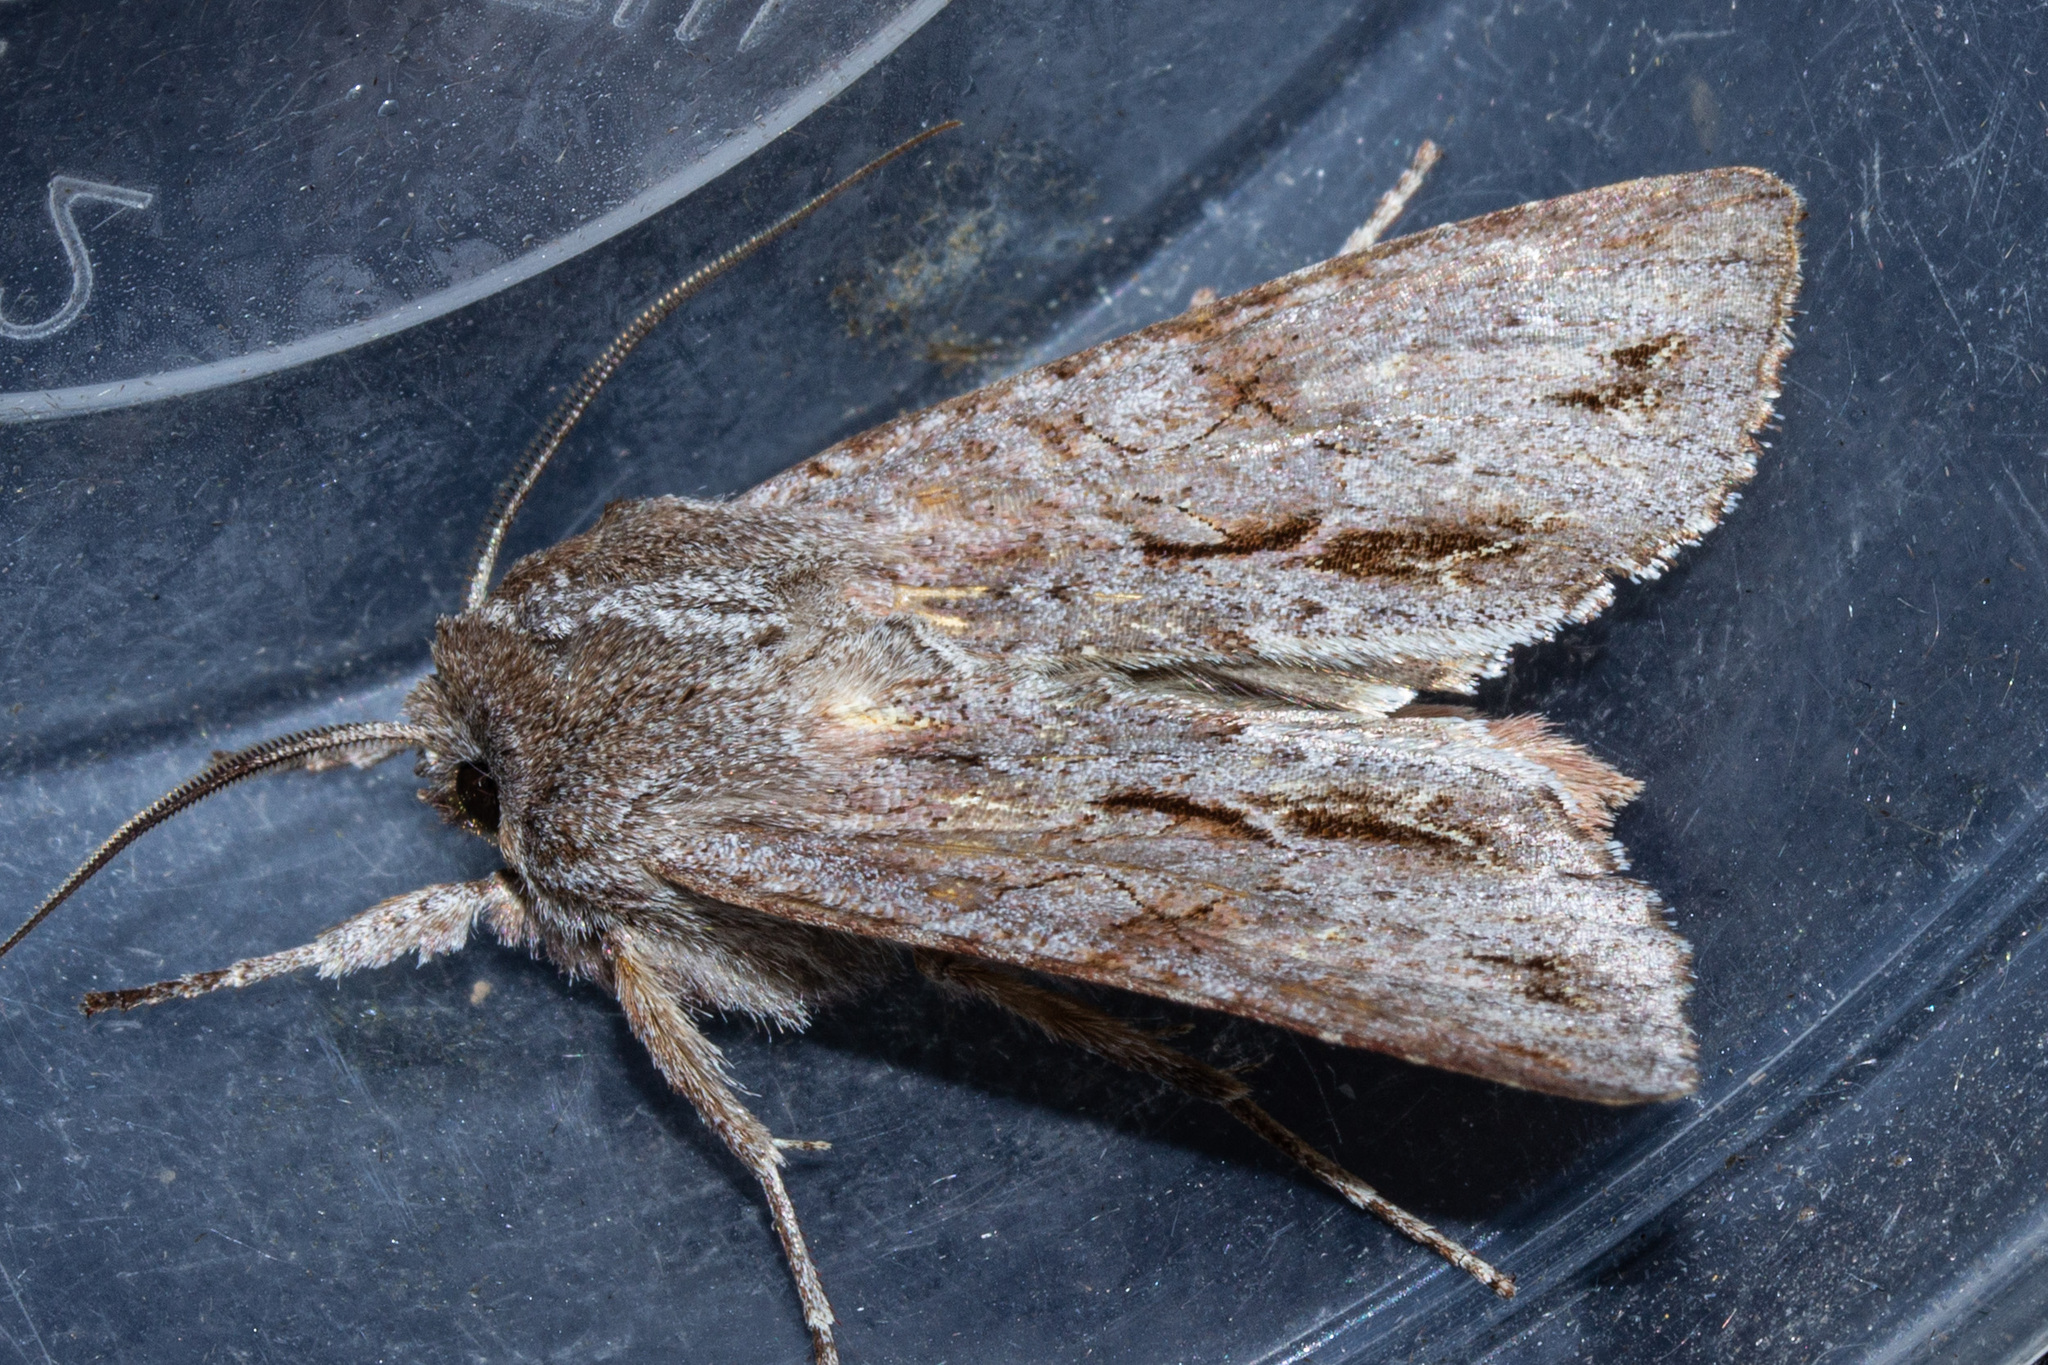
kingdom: Animalia
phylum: Arthropoda
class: Insecta
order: Lepidoptera
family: Noctuidae
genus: Ichneutica
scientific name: Ichneutica
